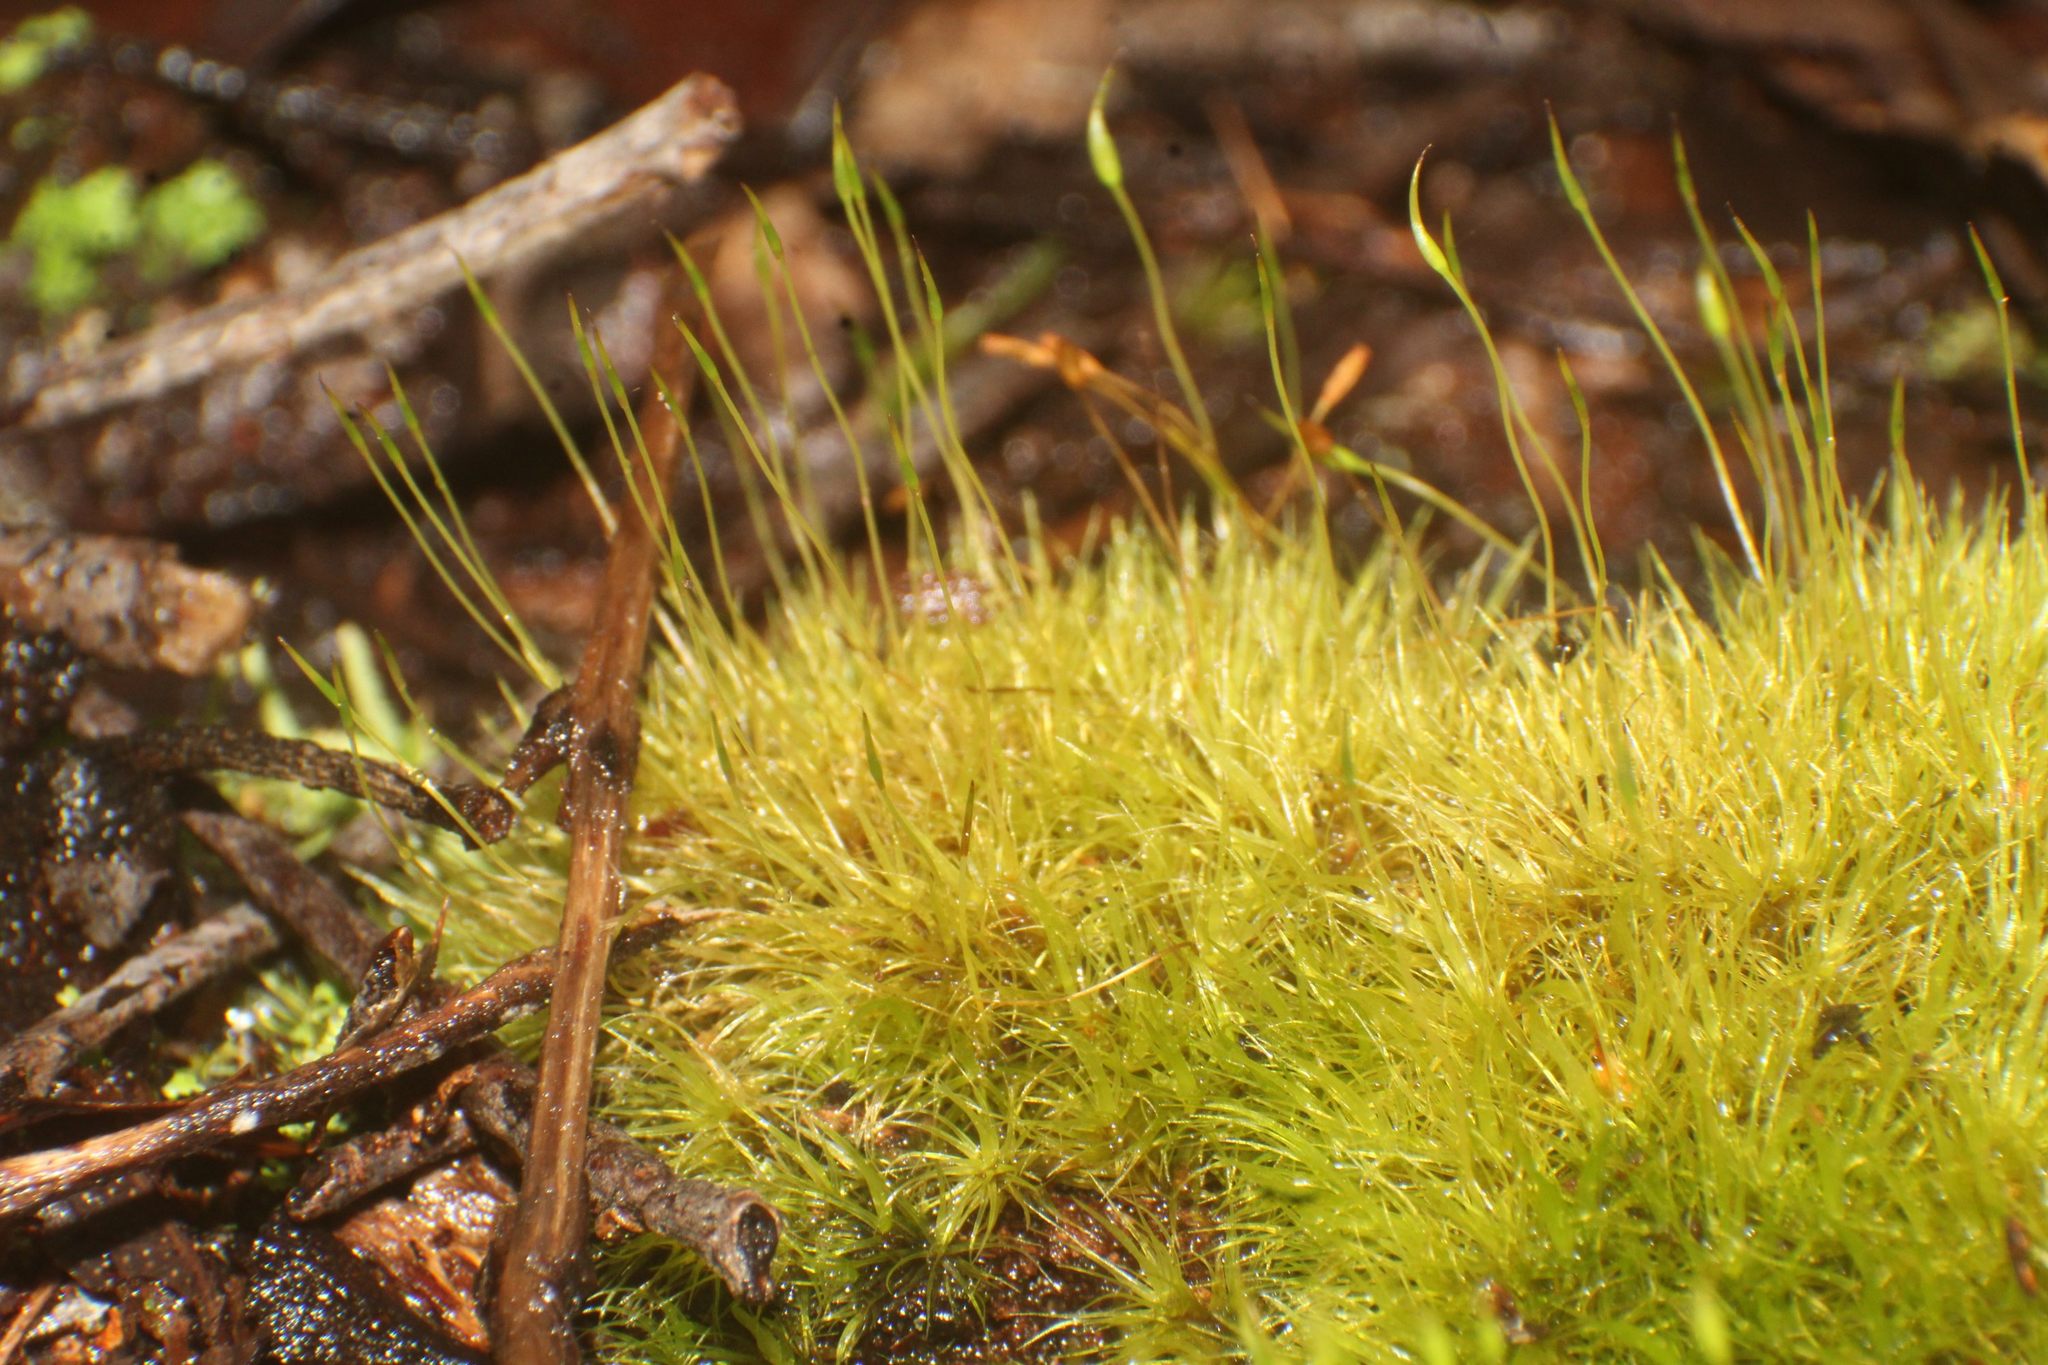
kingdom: Plantae
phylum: Bryophyta
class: Bryopsida
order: Dicranales
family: Dicranaceae
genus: Dicranoloma
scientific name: Dicranoloma diaphanoneuron
